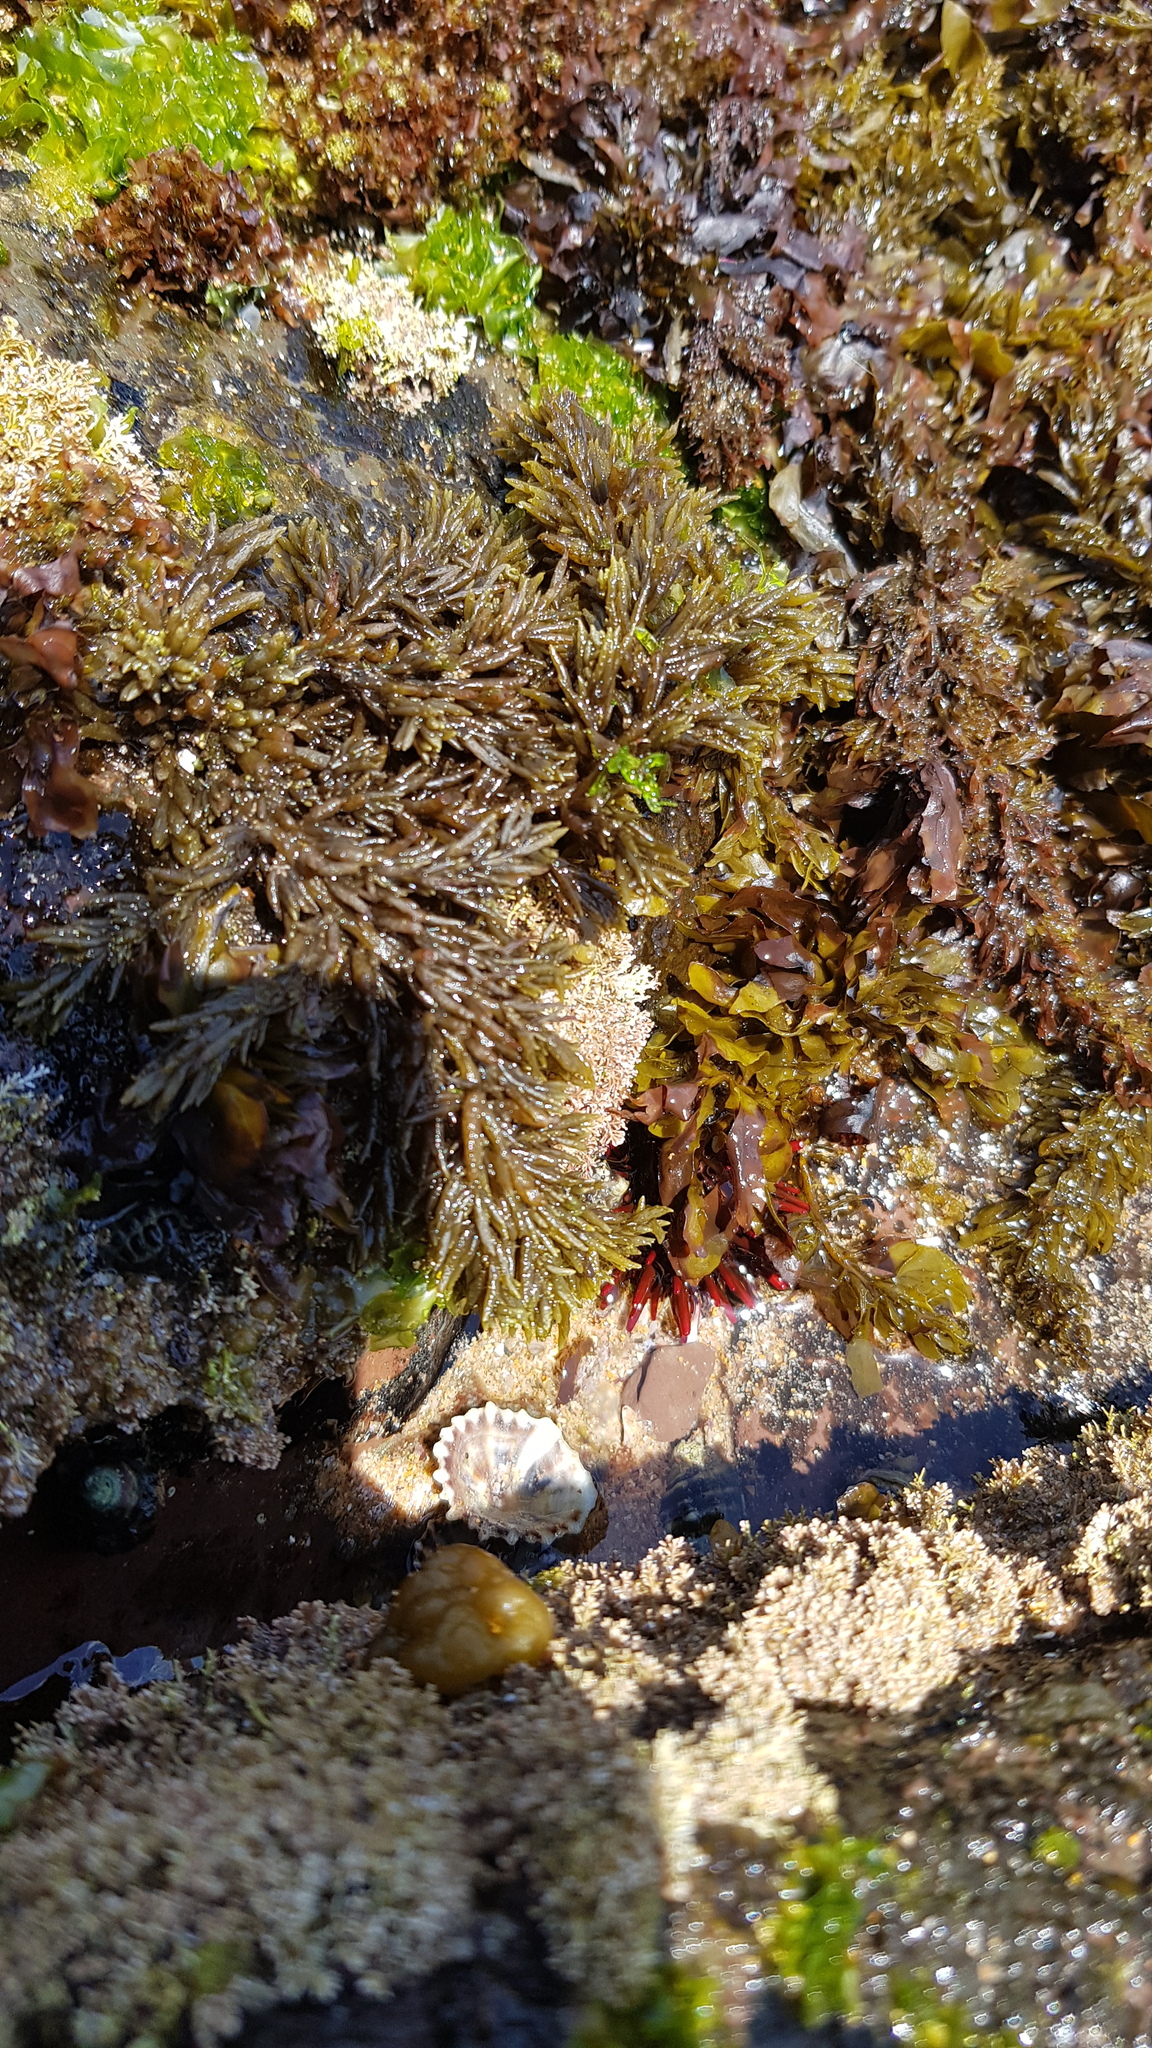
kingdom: Animalia
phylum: Echinodermata
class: Echinoidea
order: Camarodonta
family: Echinometridae
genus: Heliocidaris
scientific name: Heliocidaris tuberculata
